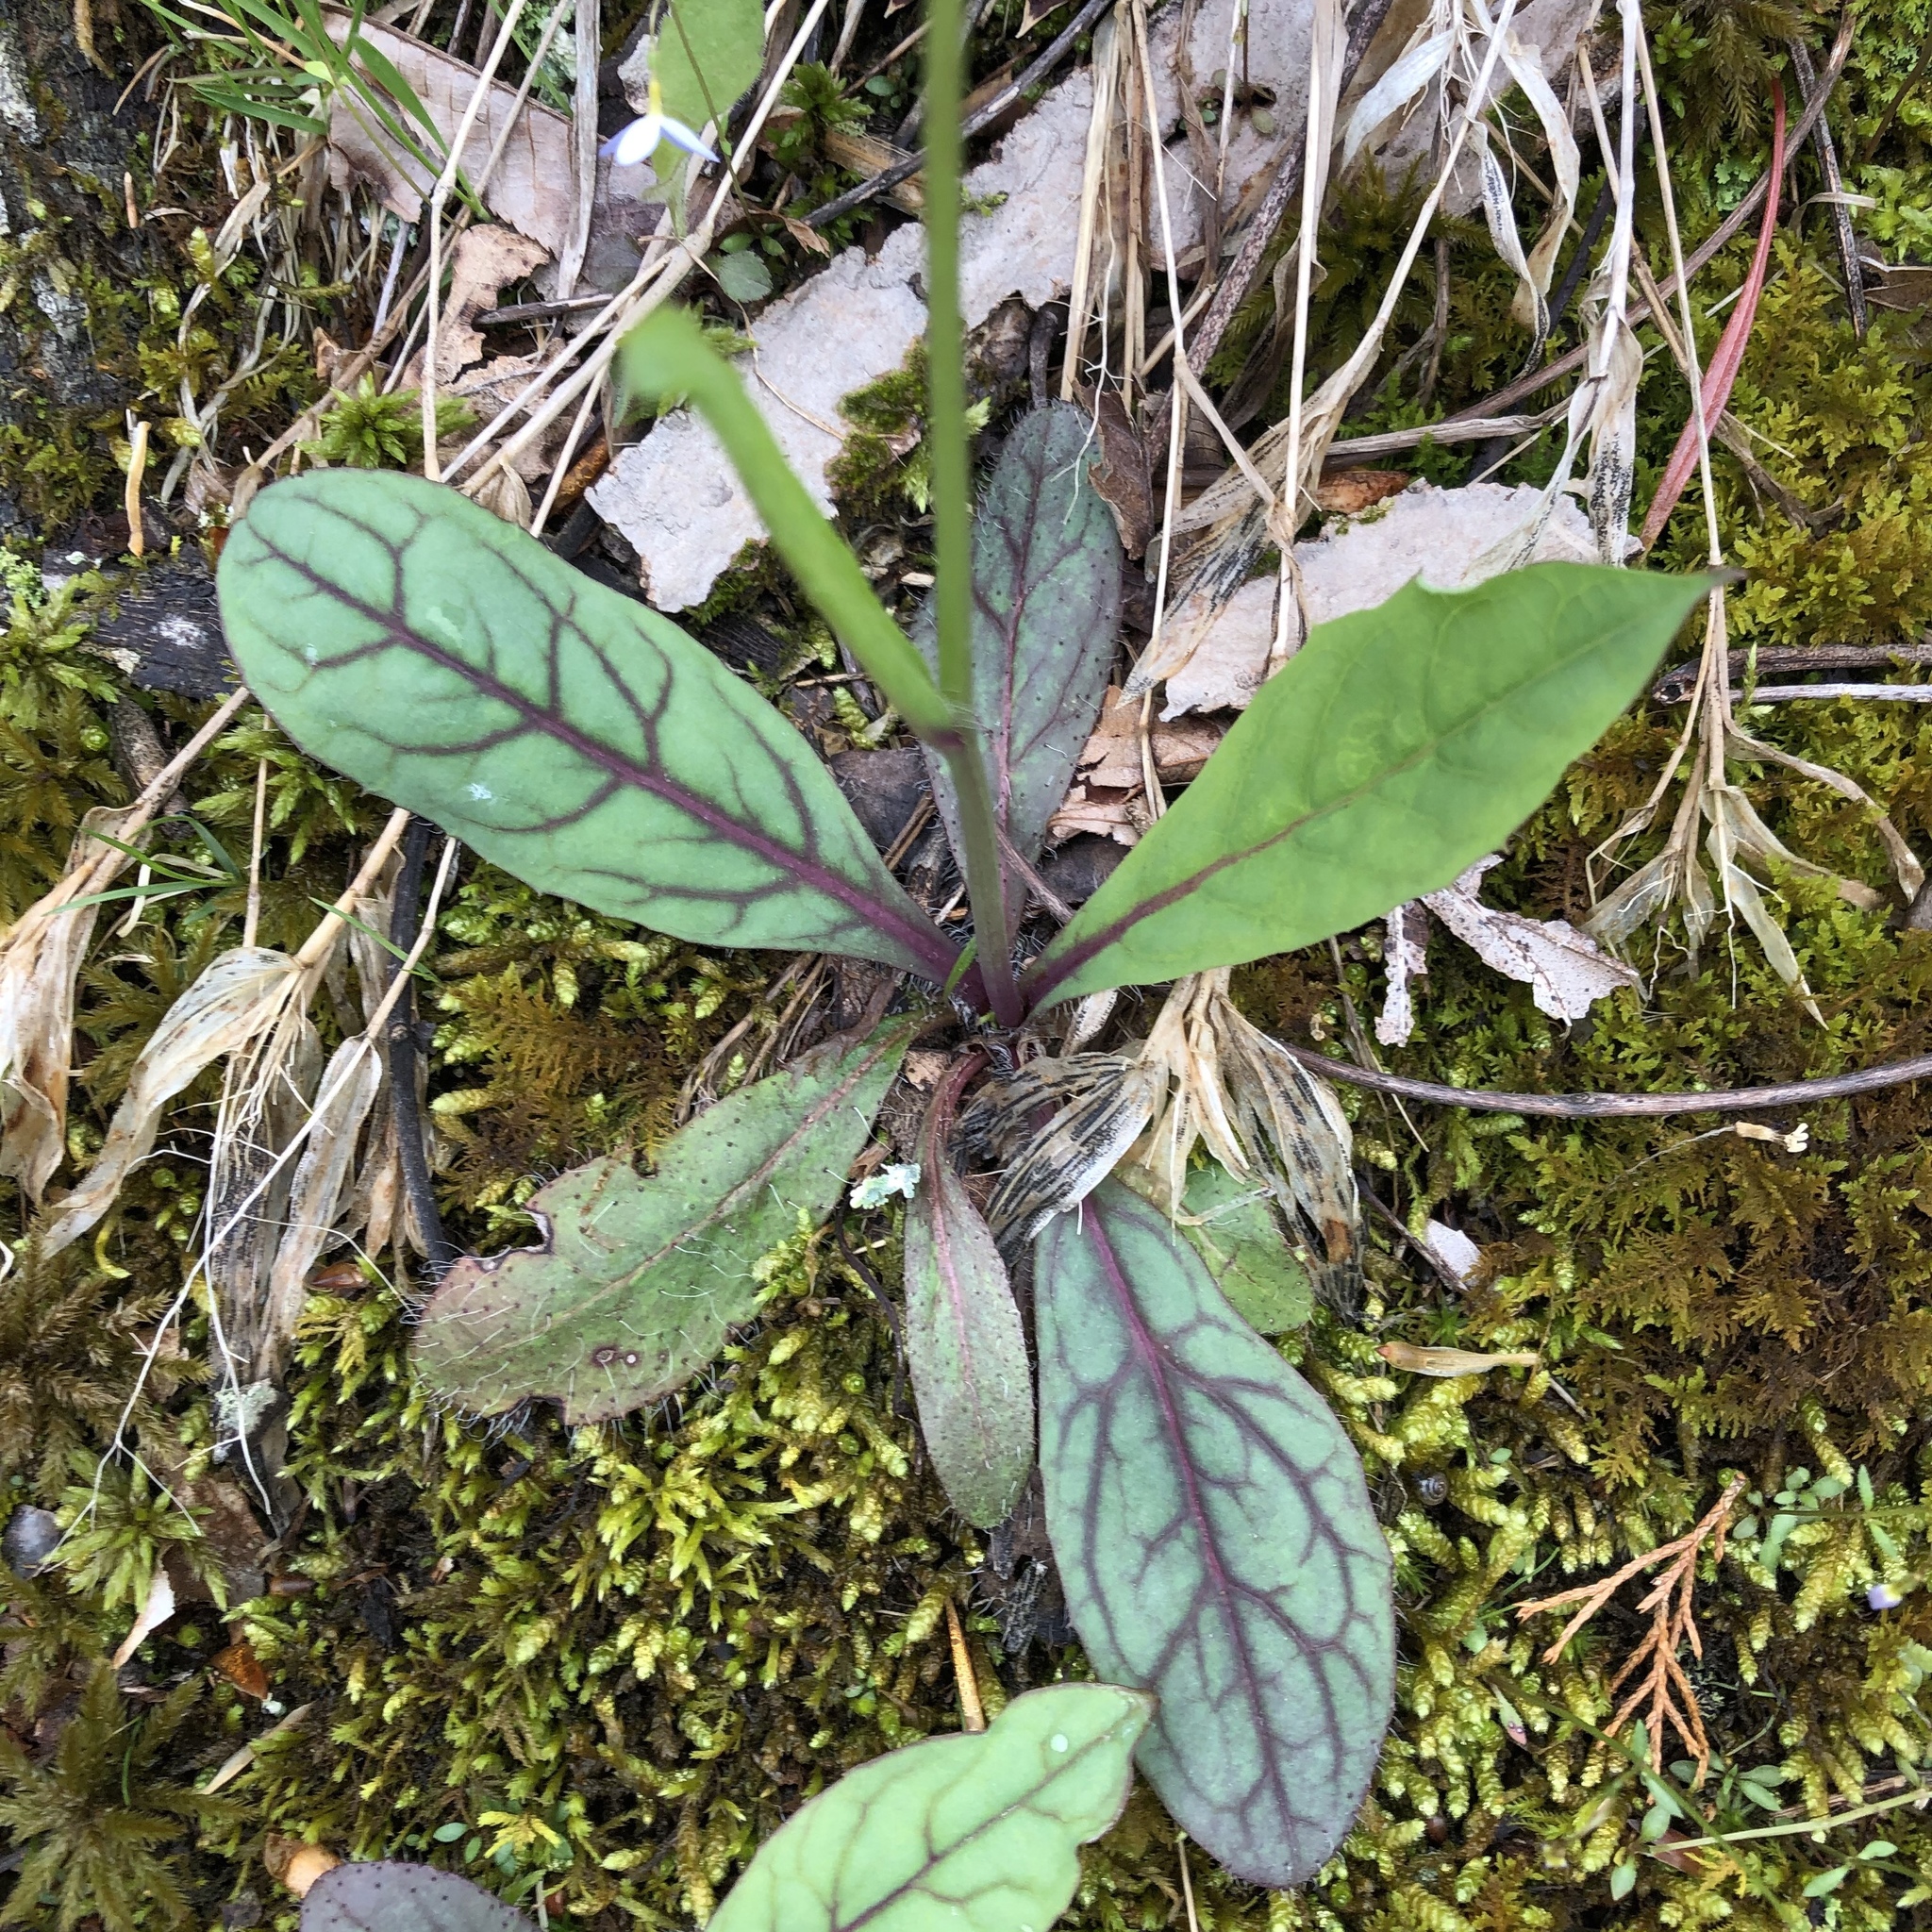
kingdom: Plantae
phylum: Tracheophyta
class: Magnoliopsida
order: Asterales
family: Asteraceae
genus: Hieracium
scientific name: Hieracium venosum
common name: Rattlesnake hawkweed
